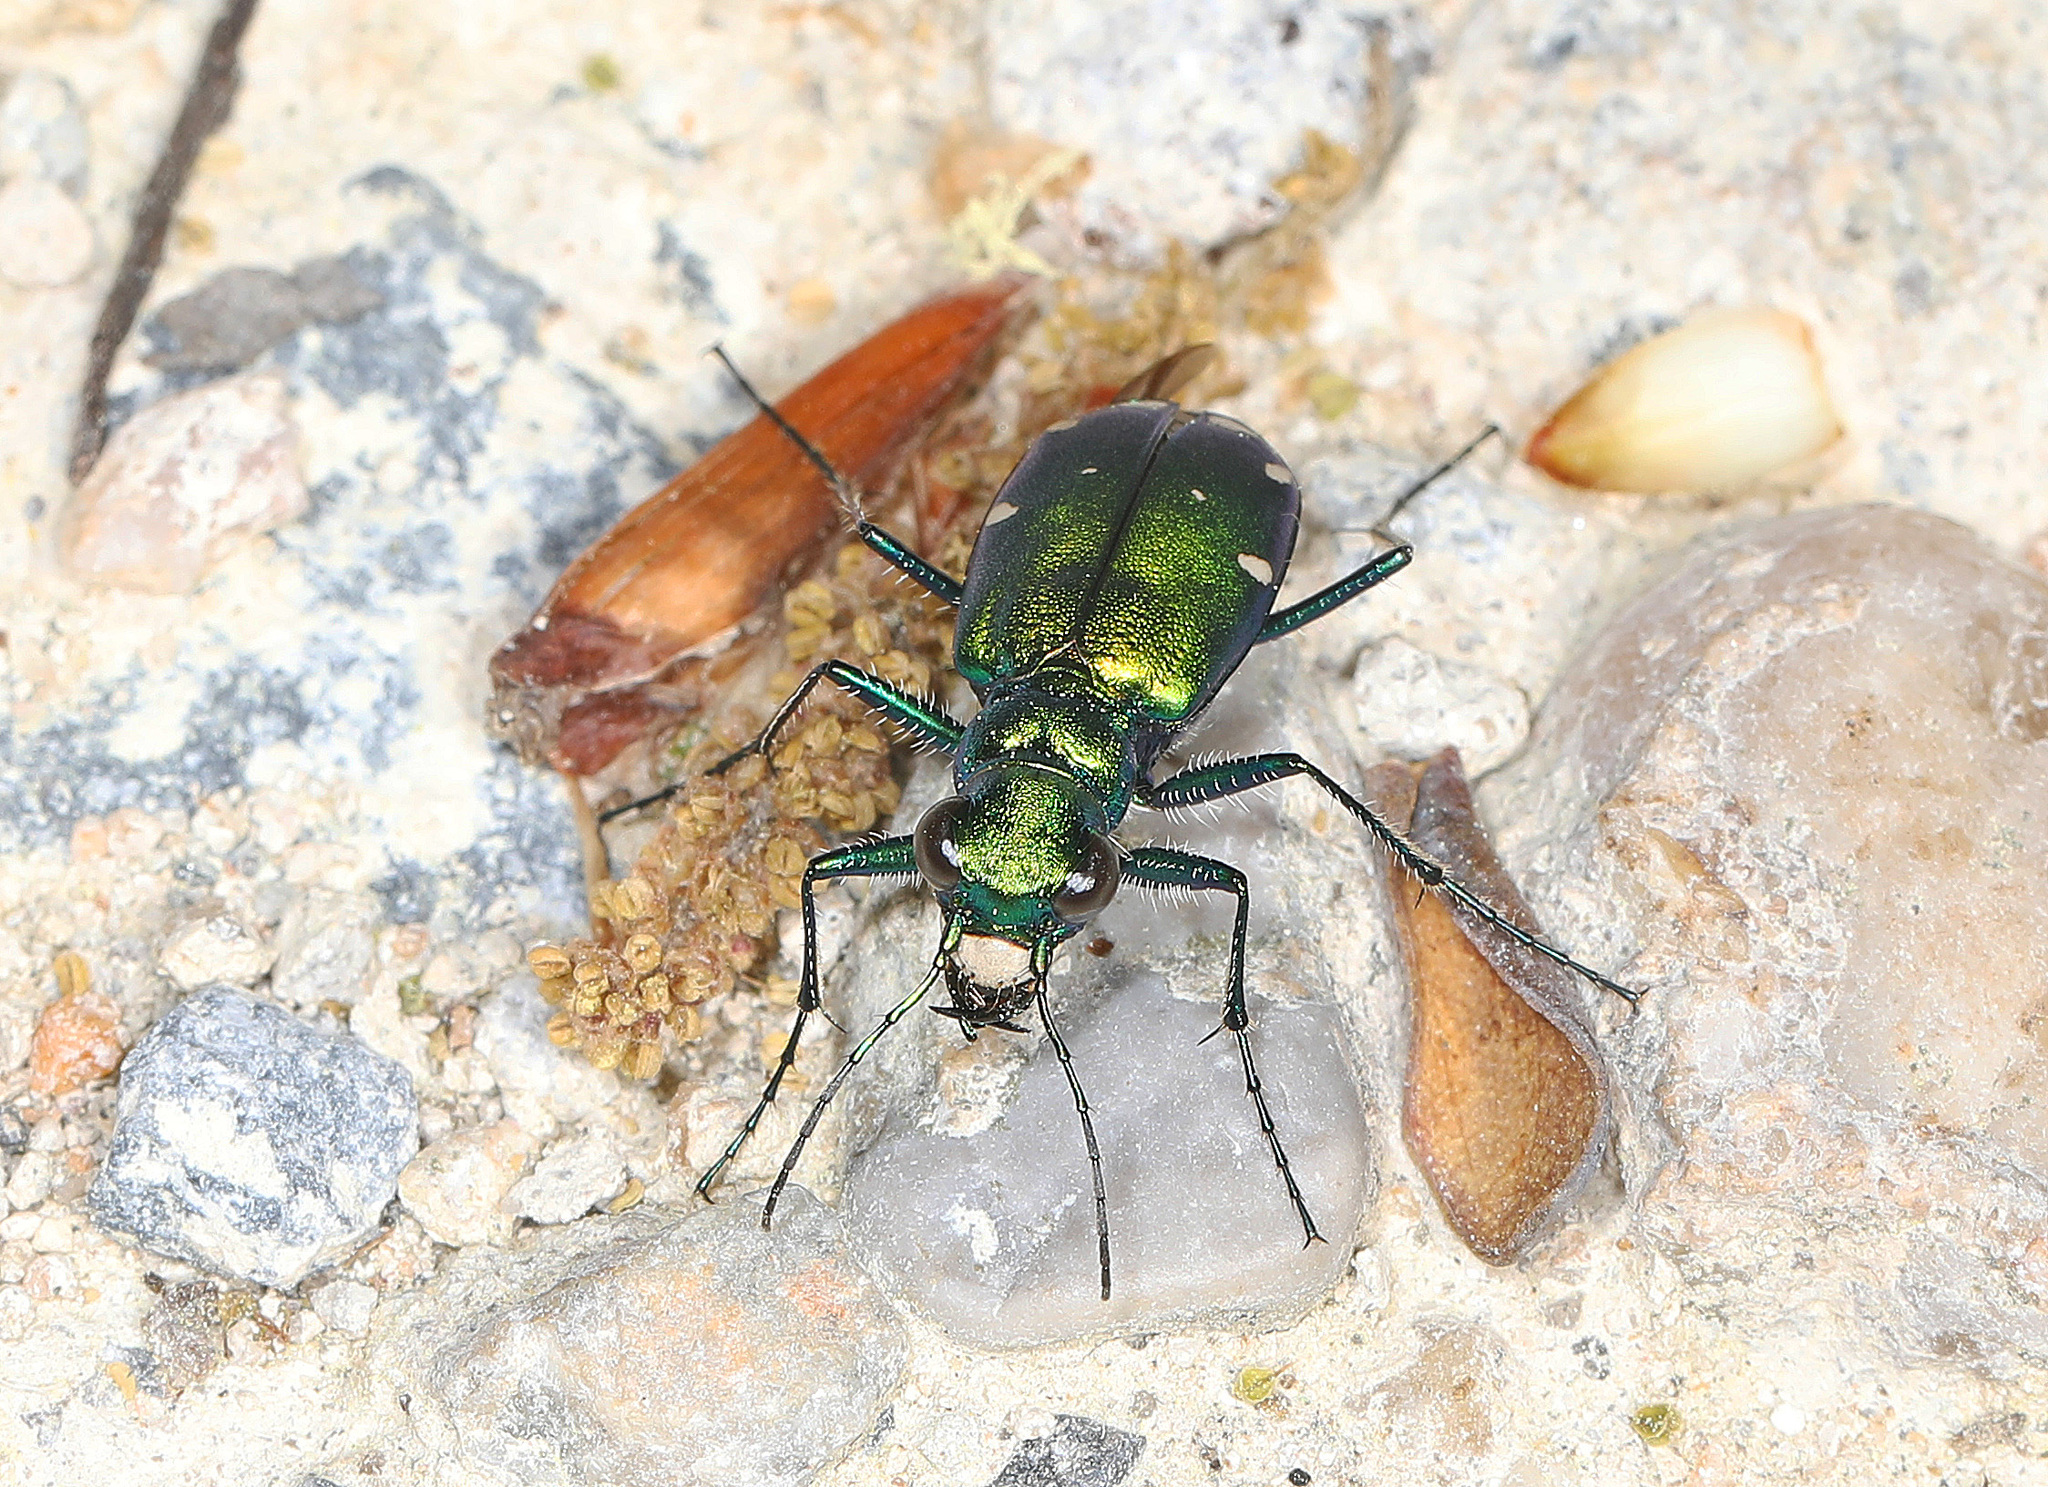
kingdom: Animalia
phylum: Arthropoda
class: Insecta
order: Coleoptera
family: Carabidae
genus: Cicindela
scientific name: Cicindela sexguttata
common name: Six-spotted tiger beetle
